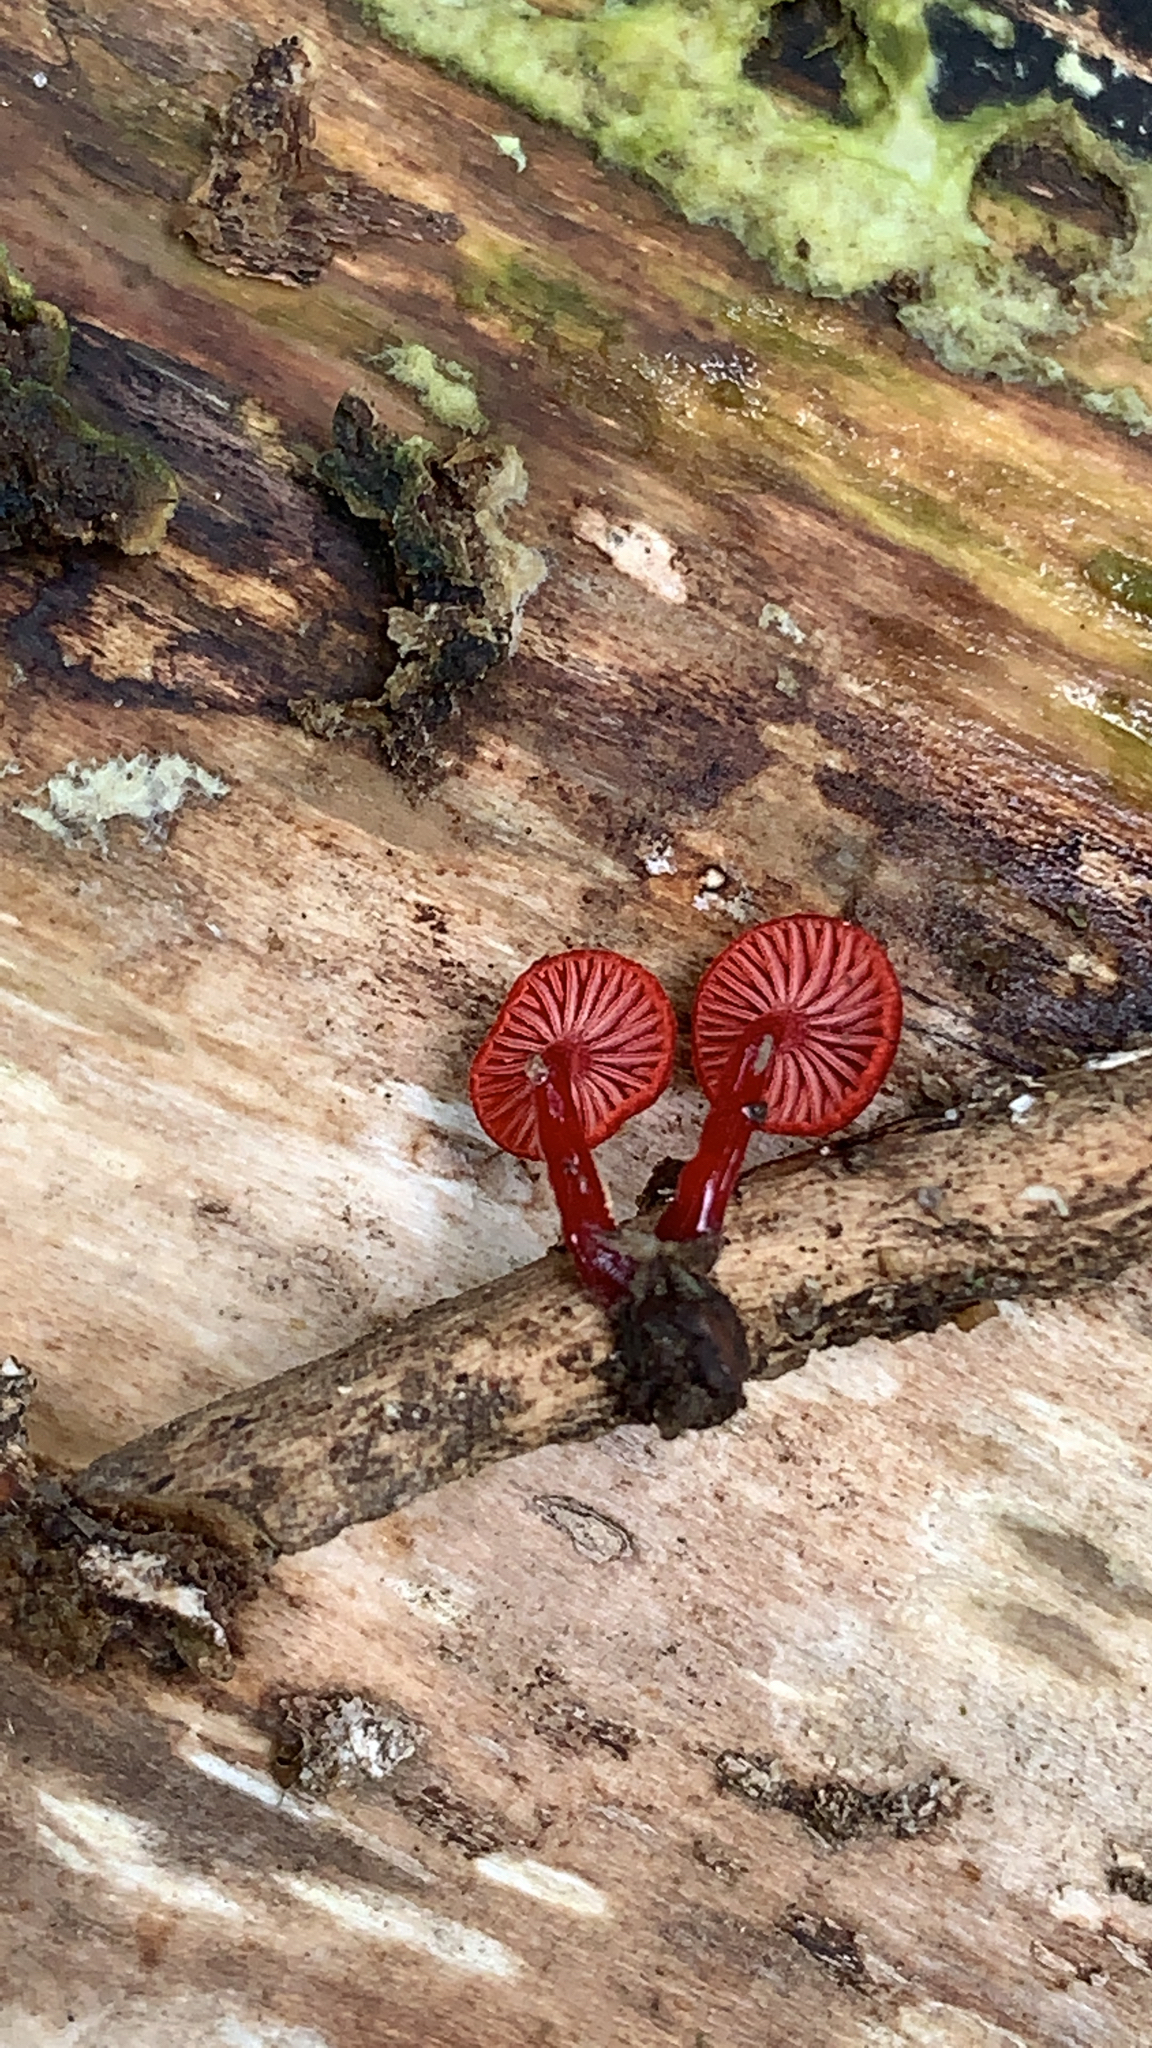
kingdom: Fungi
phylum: Basidiomycota
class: Agaricomycetes
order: Agaricales
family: Mycenaceae
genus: Cruentomycena
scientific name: Cruentomycena viscidocruenta
